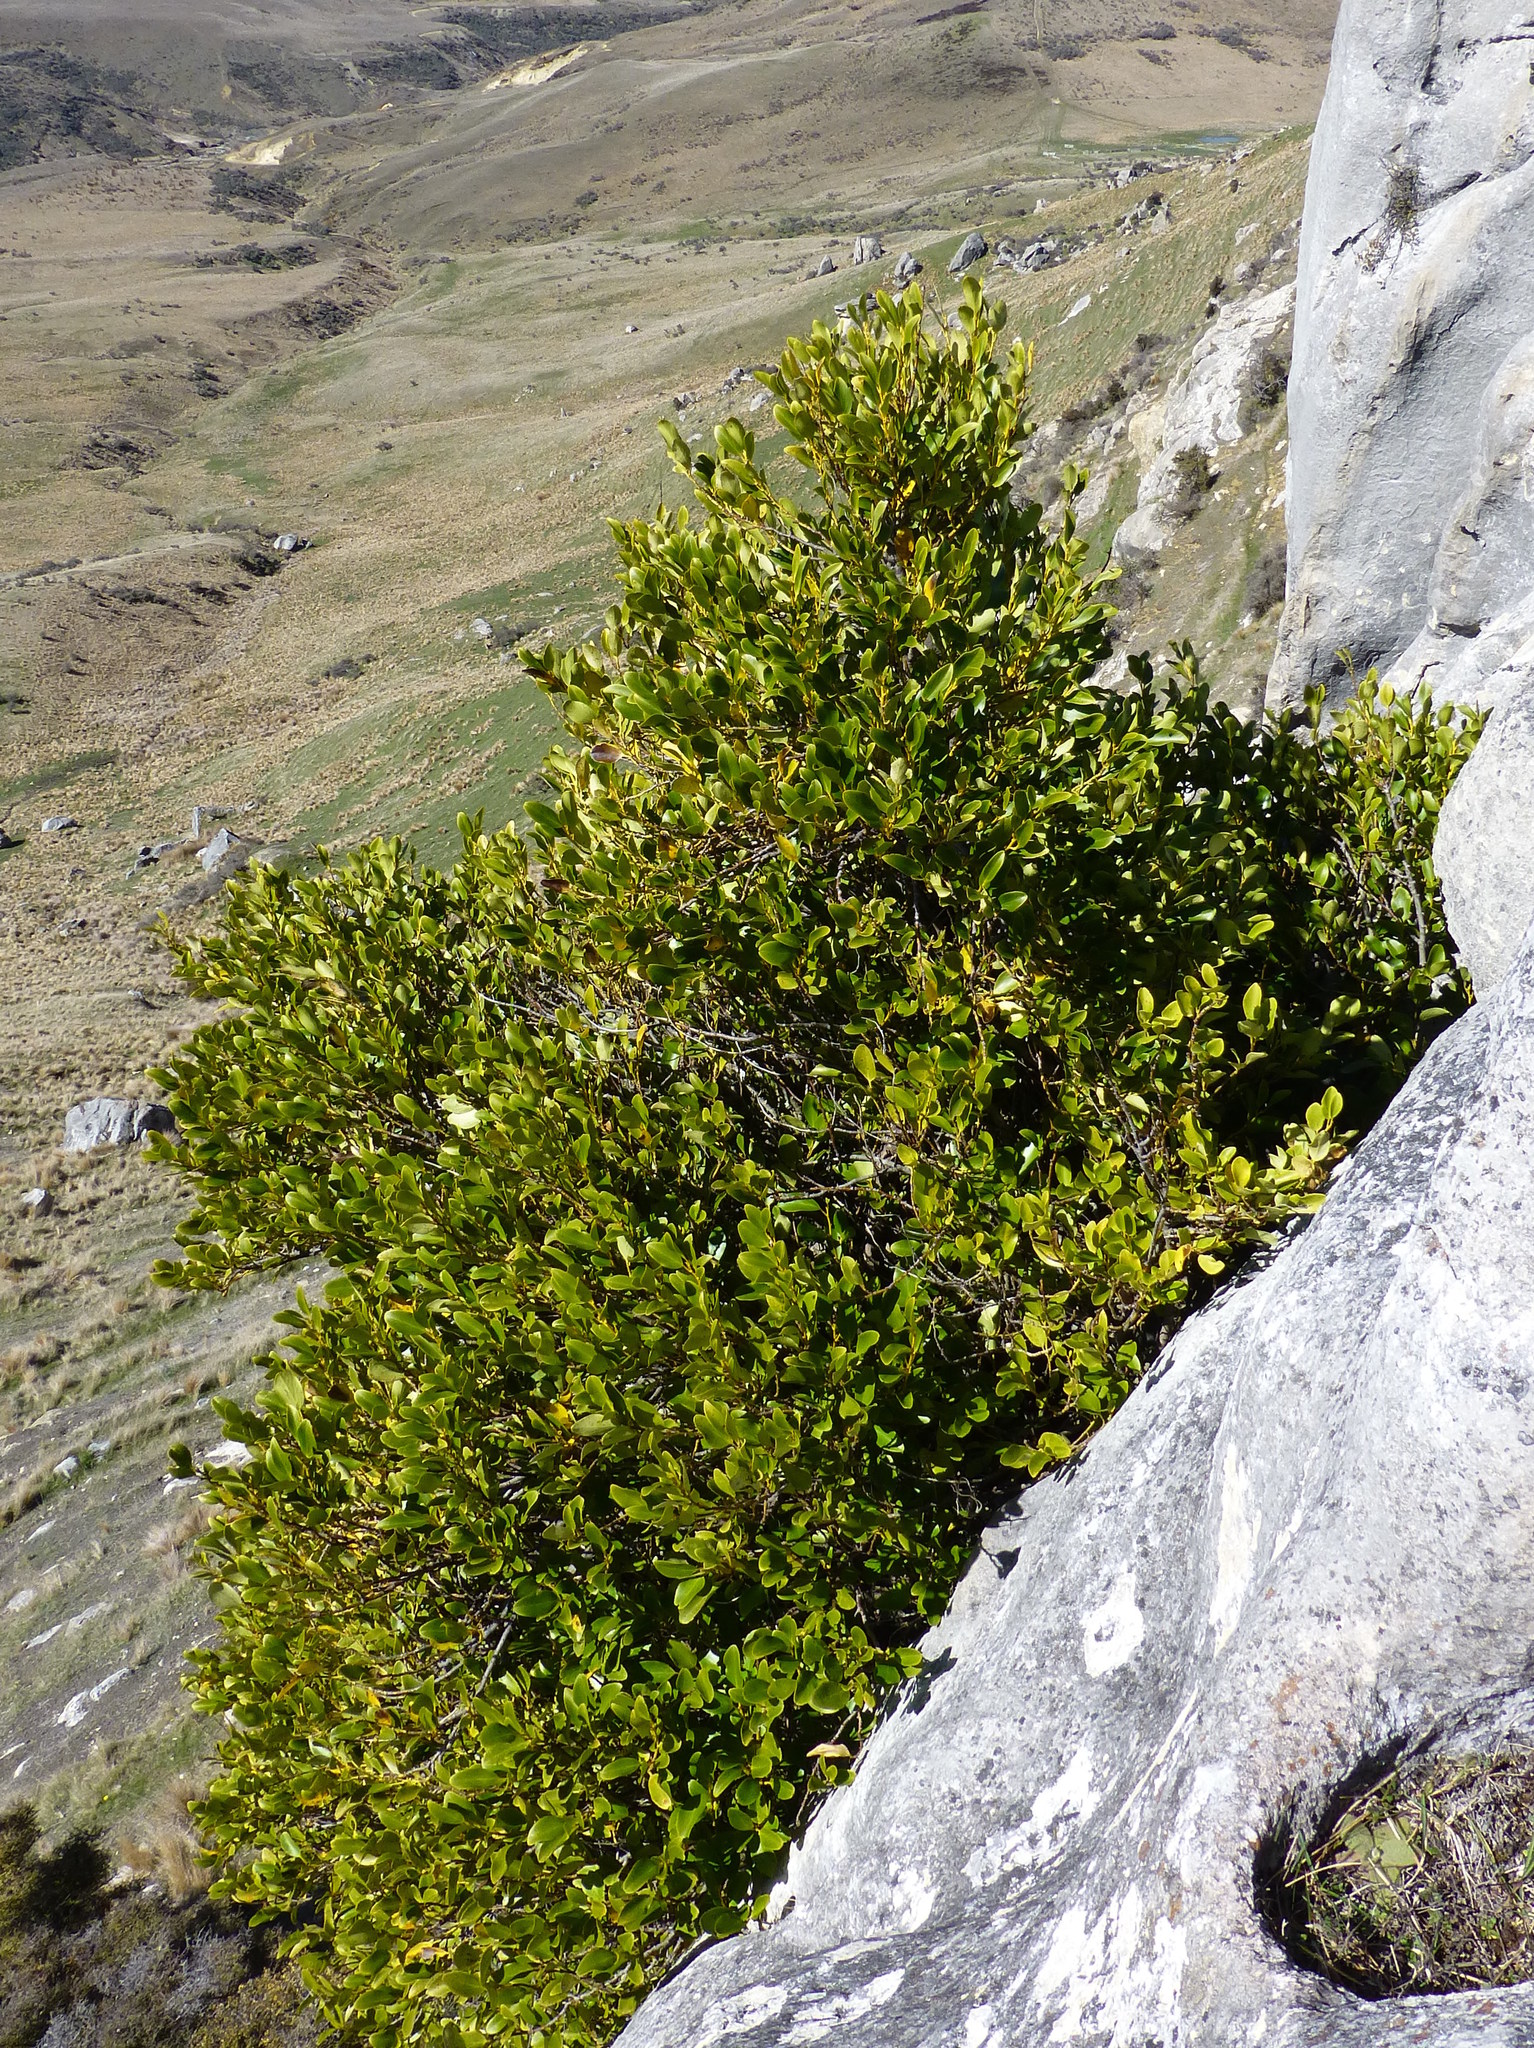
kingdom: Plantae
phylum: Tracheophyta
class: Magnoliopsida
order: Apiales
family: Griseliniaceae
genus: Griselinia
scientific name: Griselinia littoralis
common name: New zealand broadleaf
